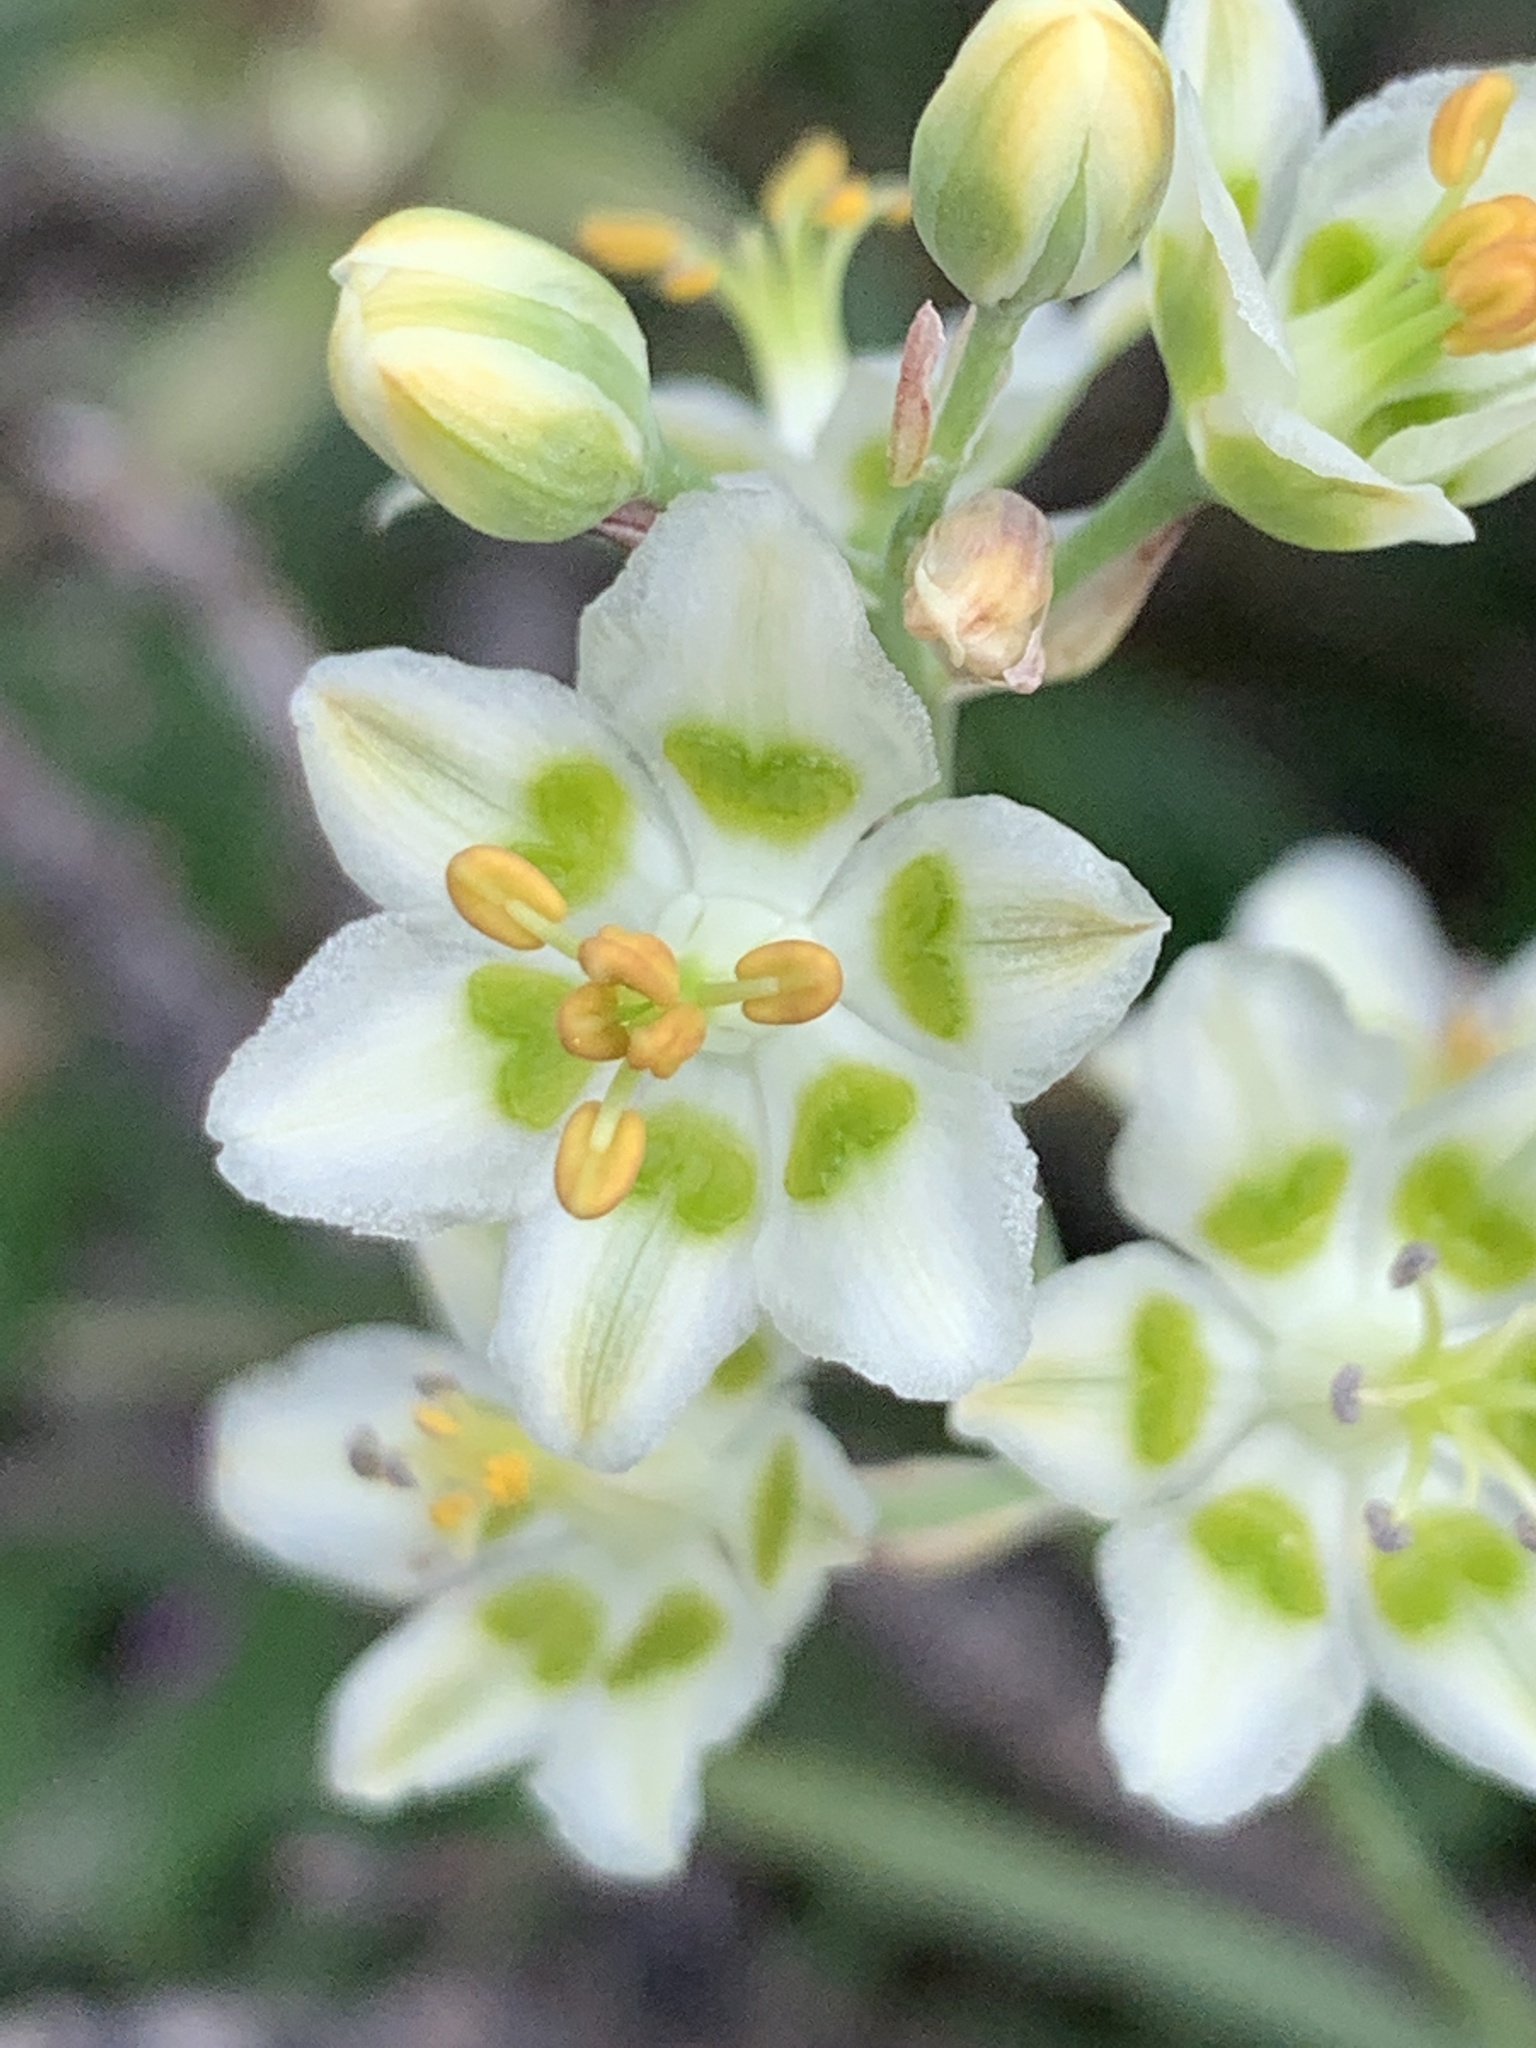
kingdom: Plantae
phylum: Tracheophyta
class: Liliopsida
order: Liliales
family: Melanthiaceae
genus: Anticlea
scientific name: Anticlea elegans
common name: Mountain death camas
